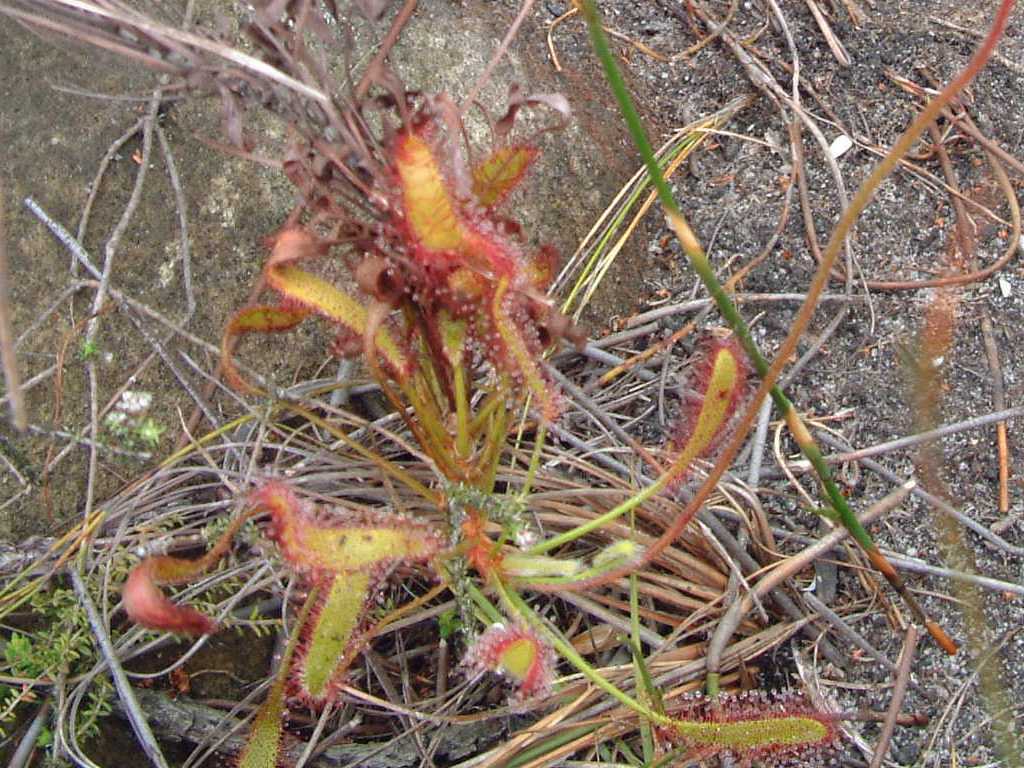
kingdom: Plantae
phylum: Tracheophyta
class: Magnoliopsida
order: Caryophyllales
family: Droseraceae
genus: Drosera
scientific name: Drosera ramentacea
